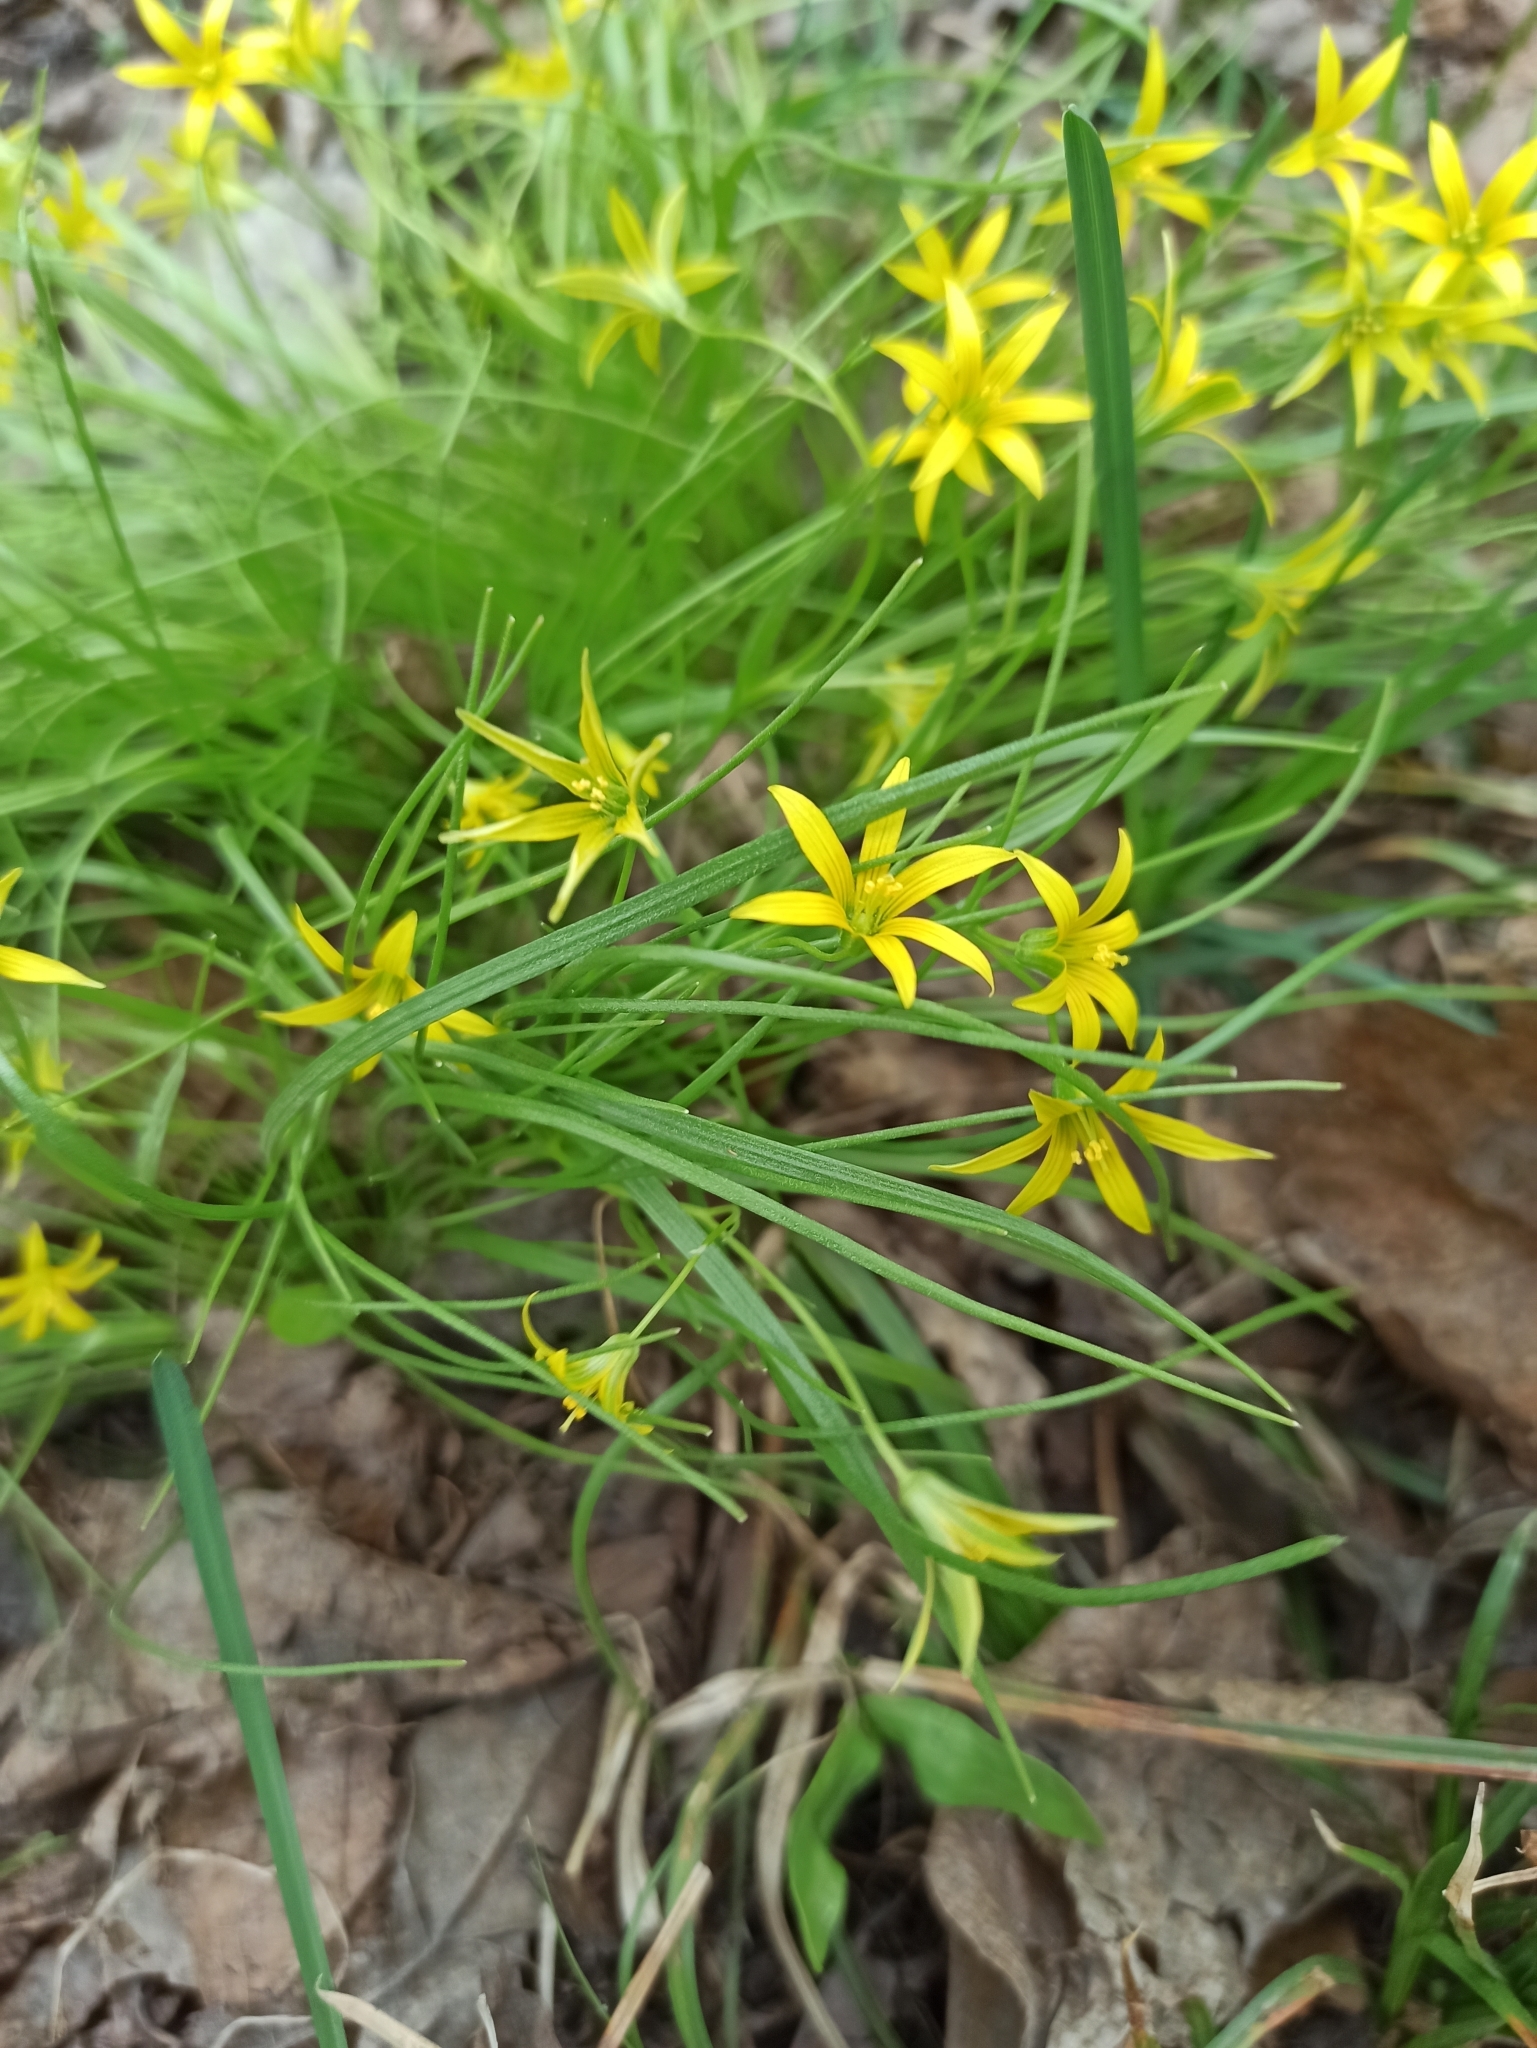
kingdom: Plantae
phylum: Tracheophyta
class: Liliopsida
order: Liliales
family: Liliaceae
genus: Gagea
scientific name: Gagea minima
